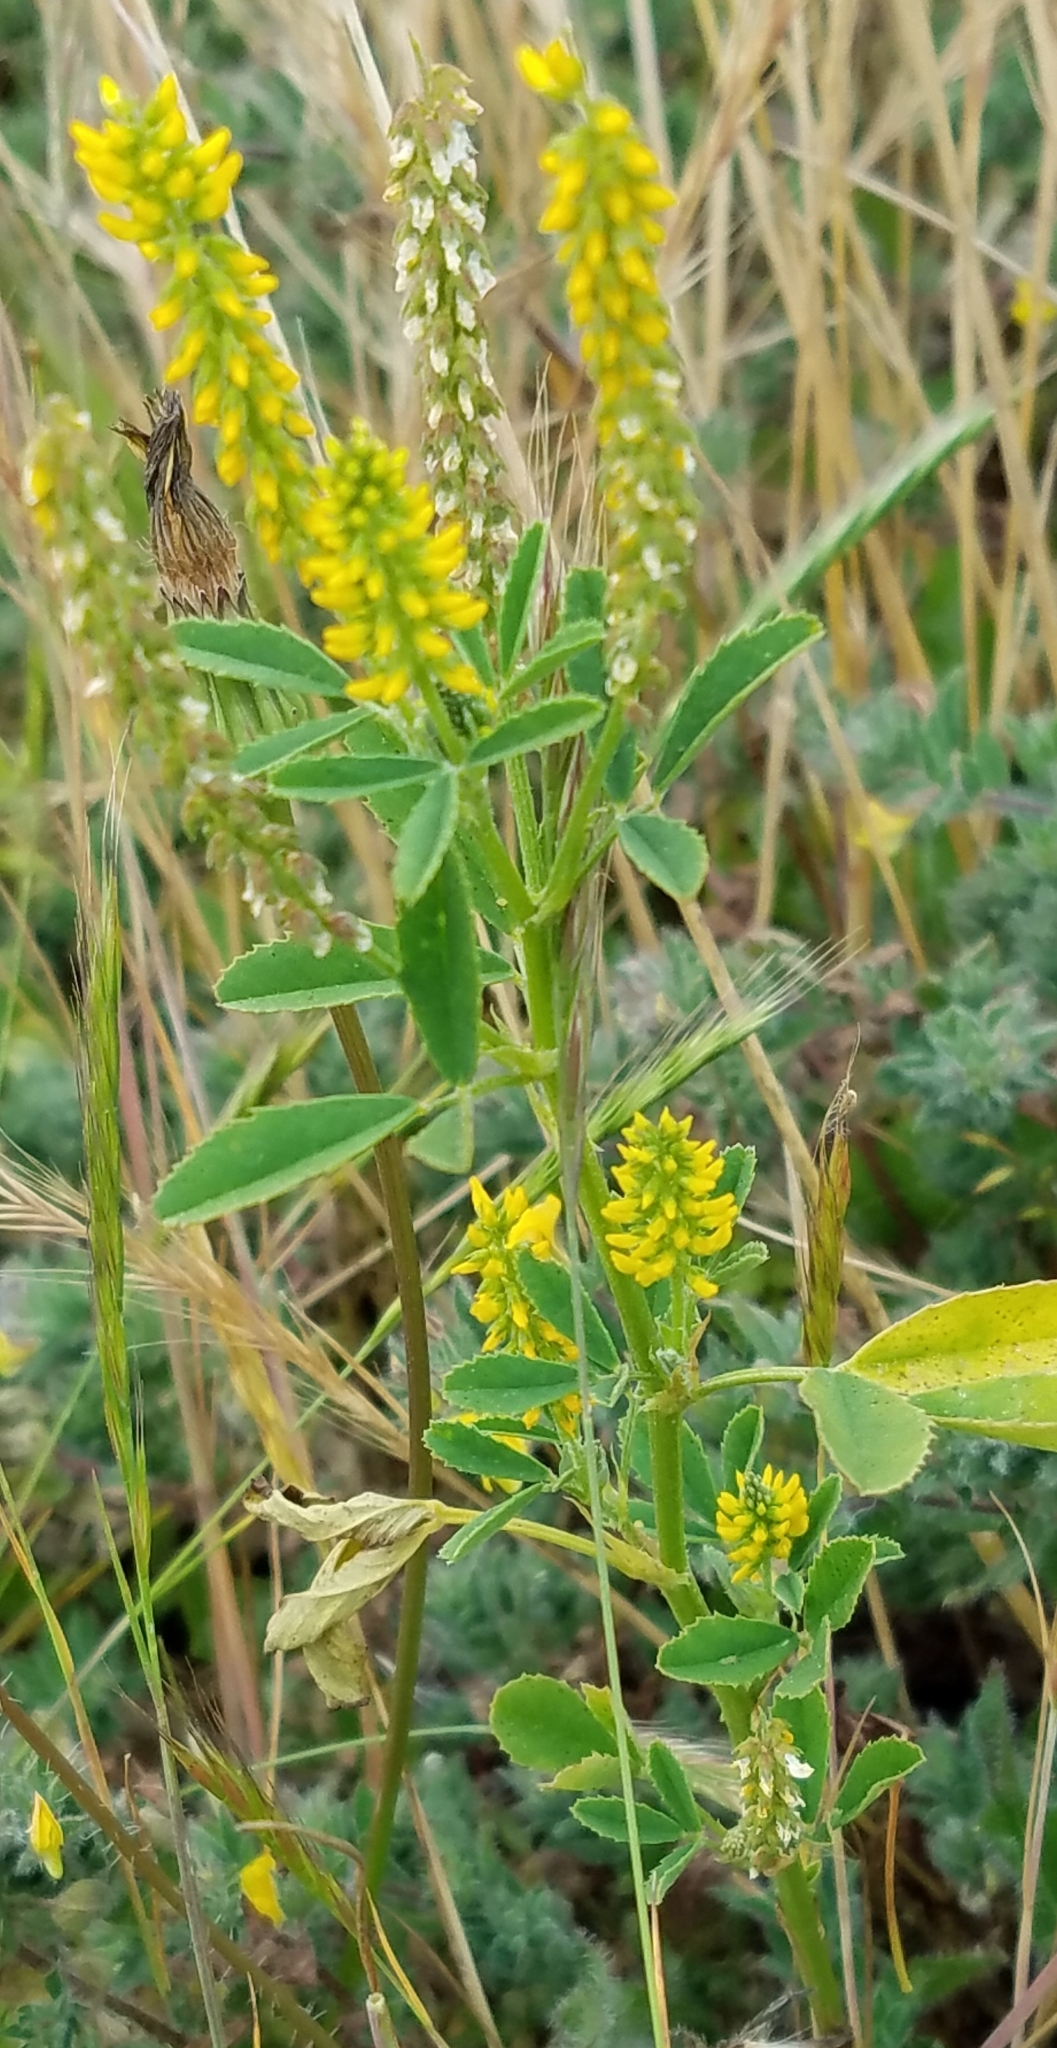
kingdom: Plantae
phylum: Tracheophyta
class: Magnoliopsida
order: Fabales
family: Fabaceae
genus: Melilotus
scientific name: Melilotus indicus
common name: Small melilot
